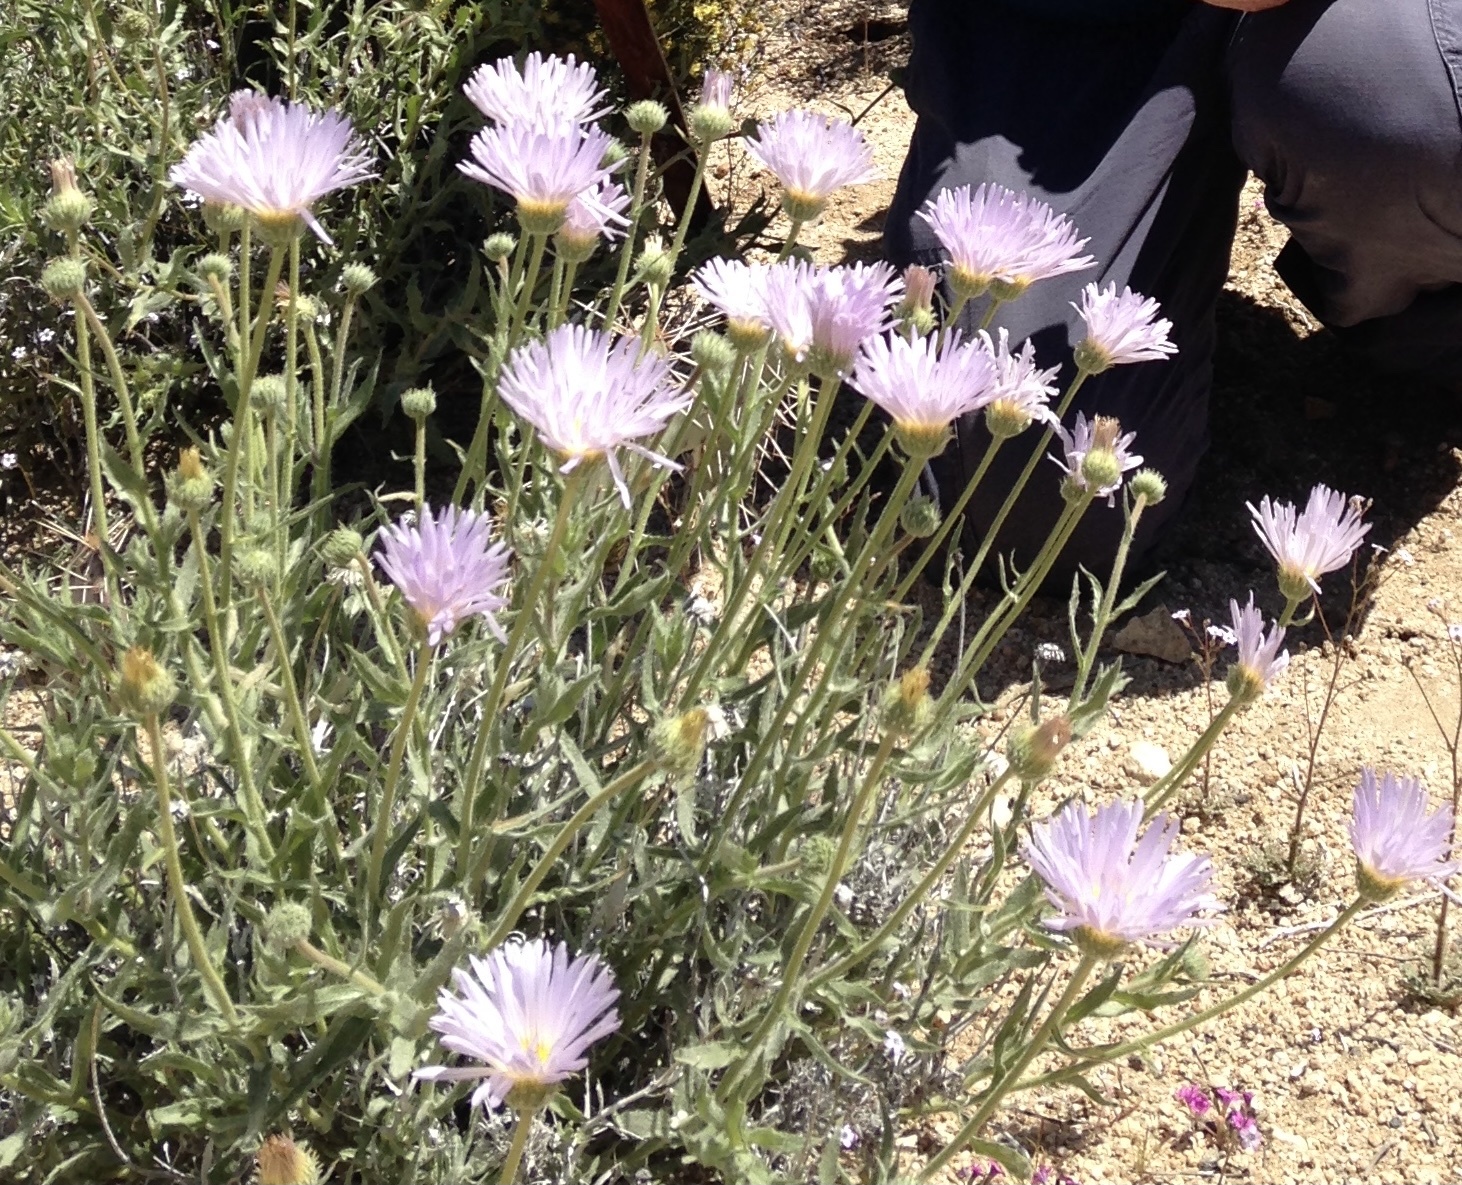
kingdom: Plantae
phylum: Tracheophyta
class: Magnoliopsida
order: Asterales
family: Asteraceae
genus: Xylorhiza
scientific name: Xylorhiza tortifolia
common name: Hurt-leaf woody-aster
